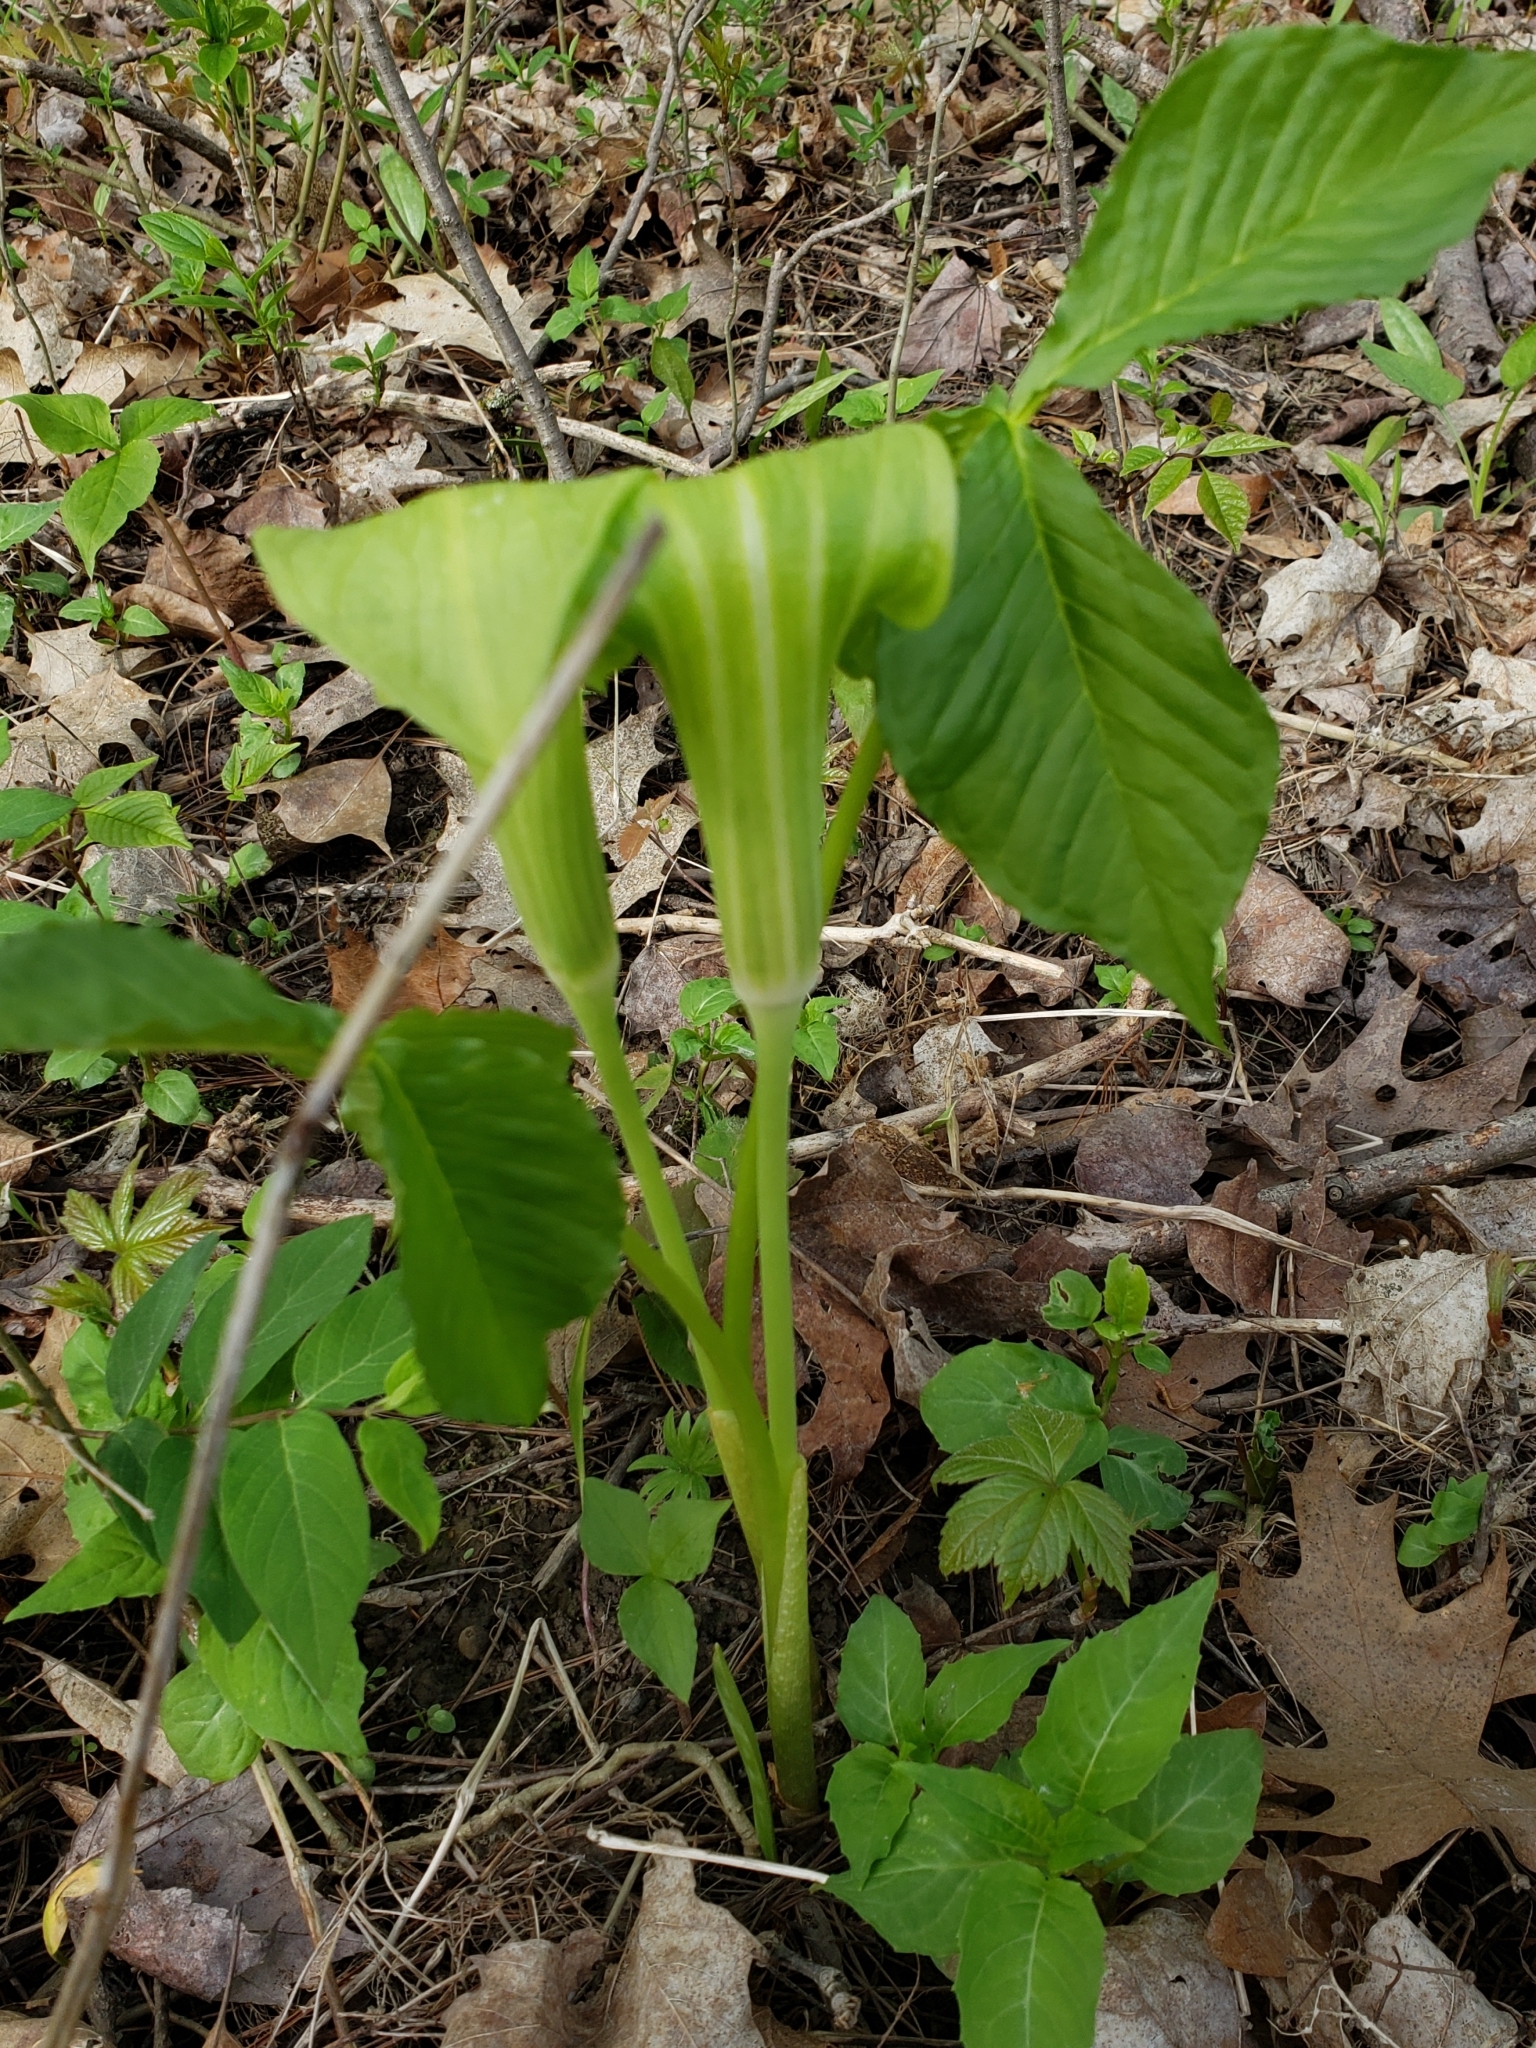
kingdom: Plantae
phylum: Tracheophyta
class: Liliopsida
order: Alismatales
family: Araceae
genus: Arisaema
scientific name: Arisaema triphyllum
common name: Jack-in-the-pulpit
